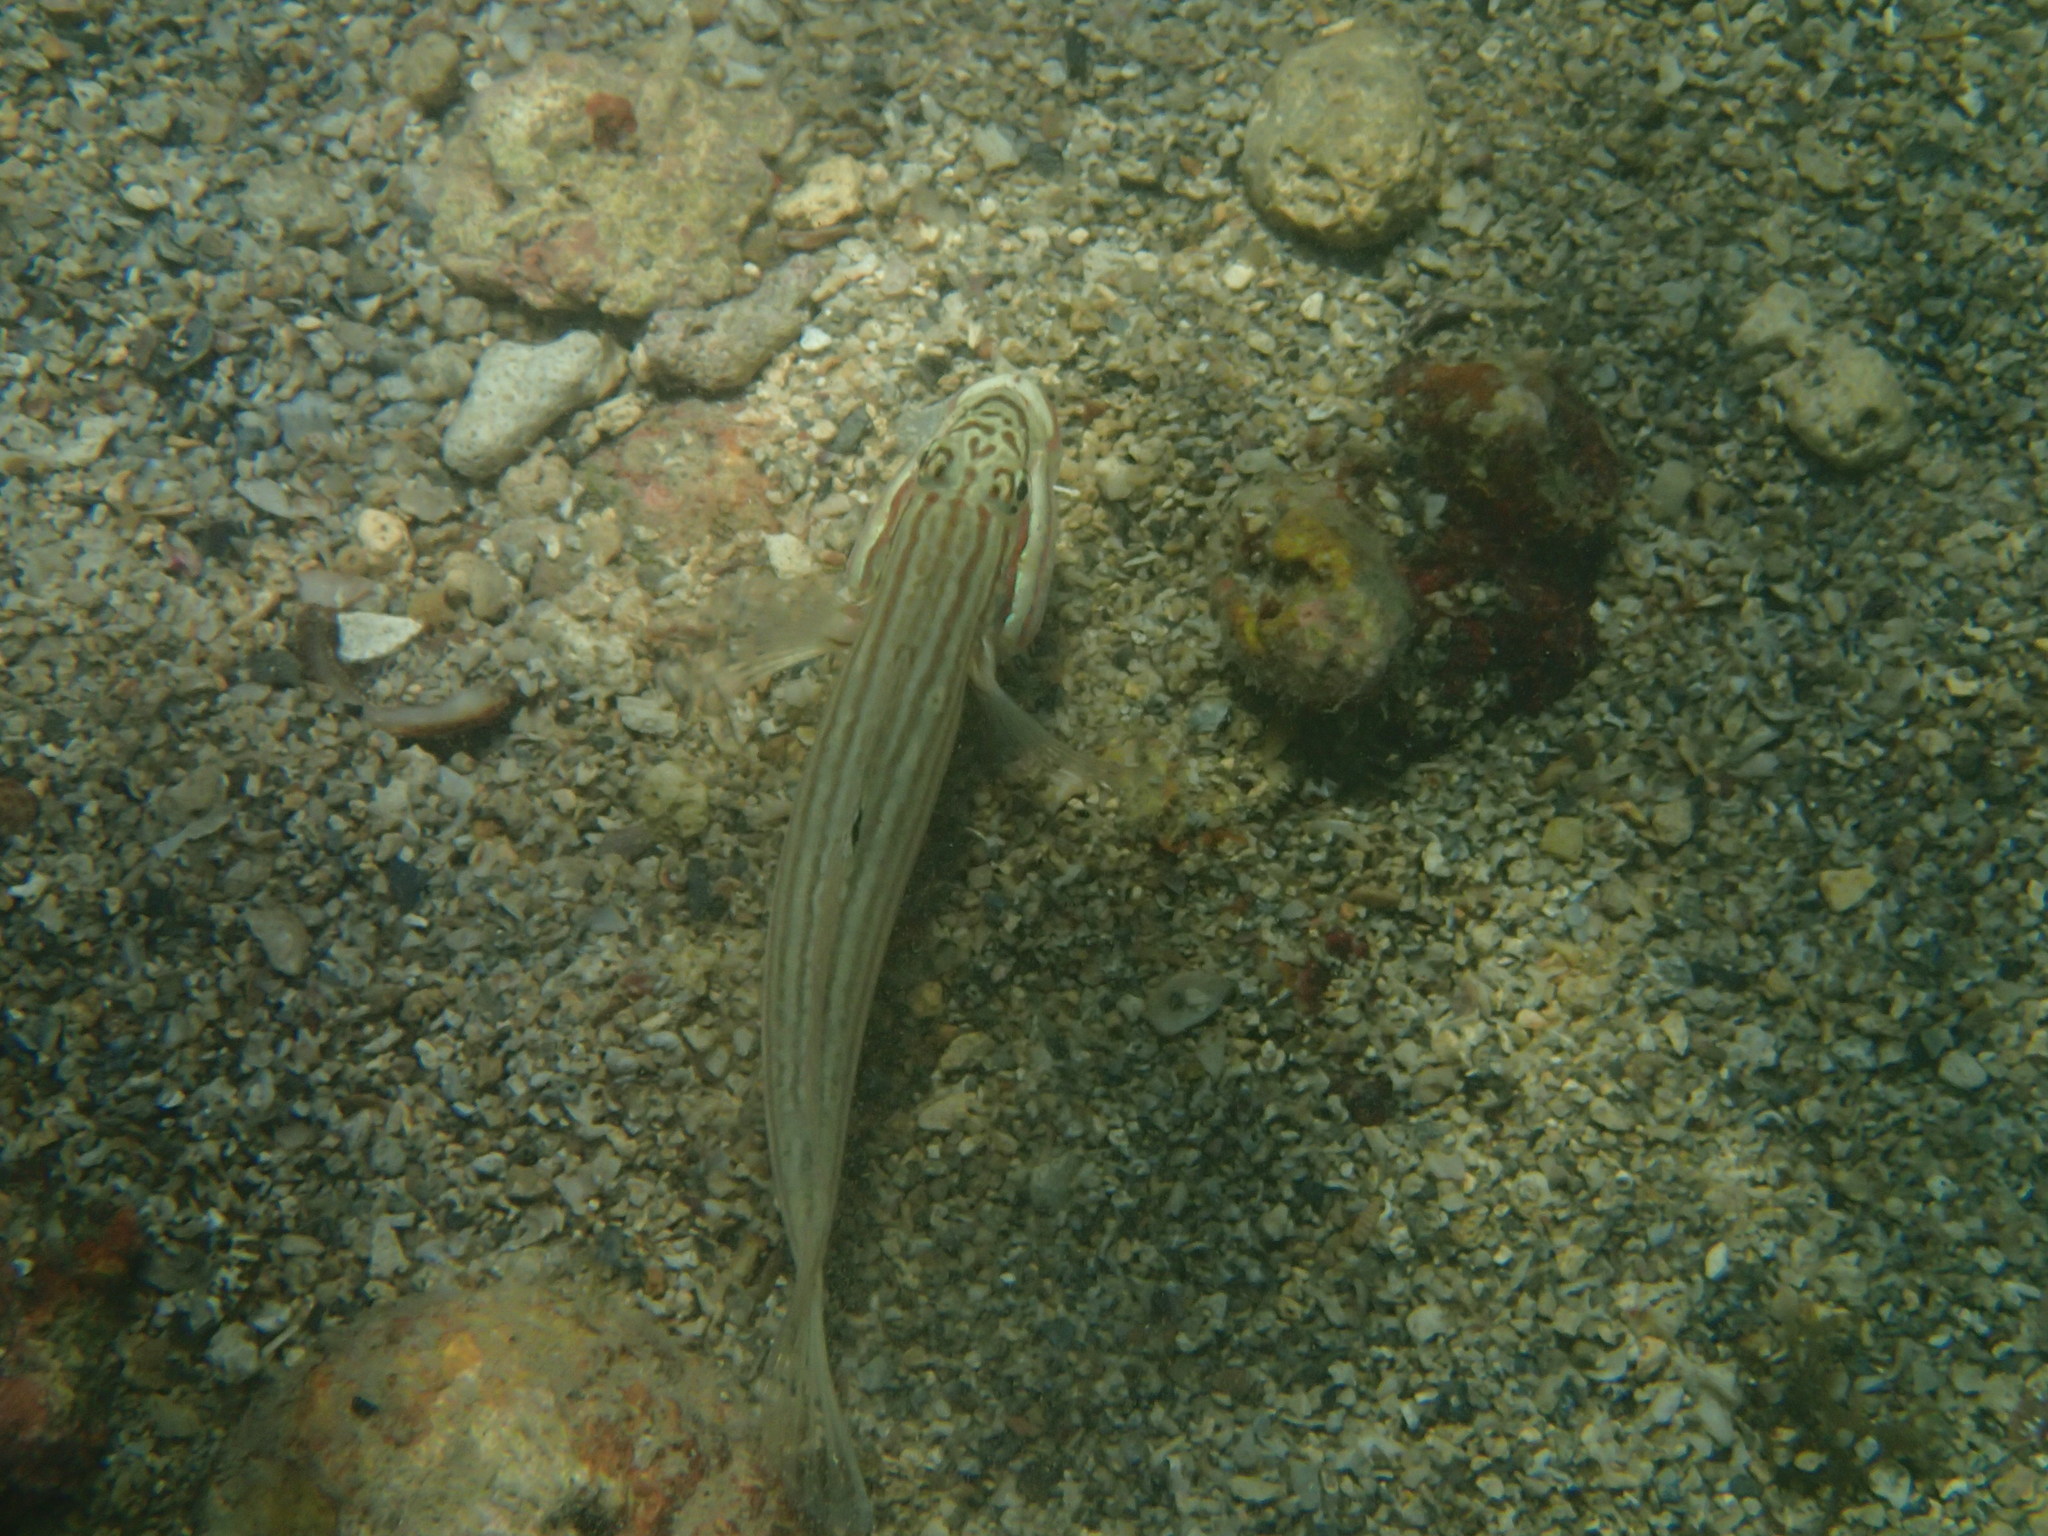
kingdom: Animalia
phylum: Chordata
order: Perciformes
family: Gobiidae
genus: Valenciennea
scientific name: Valenciennea muralis
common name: Mural goby
